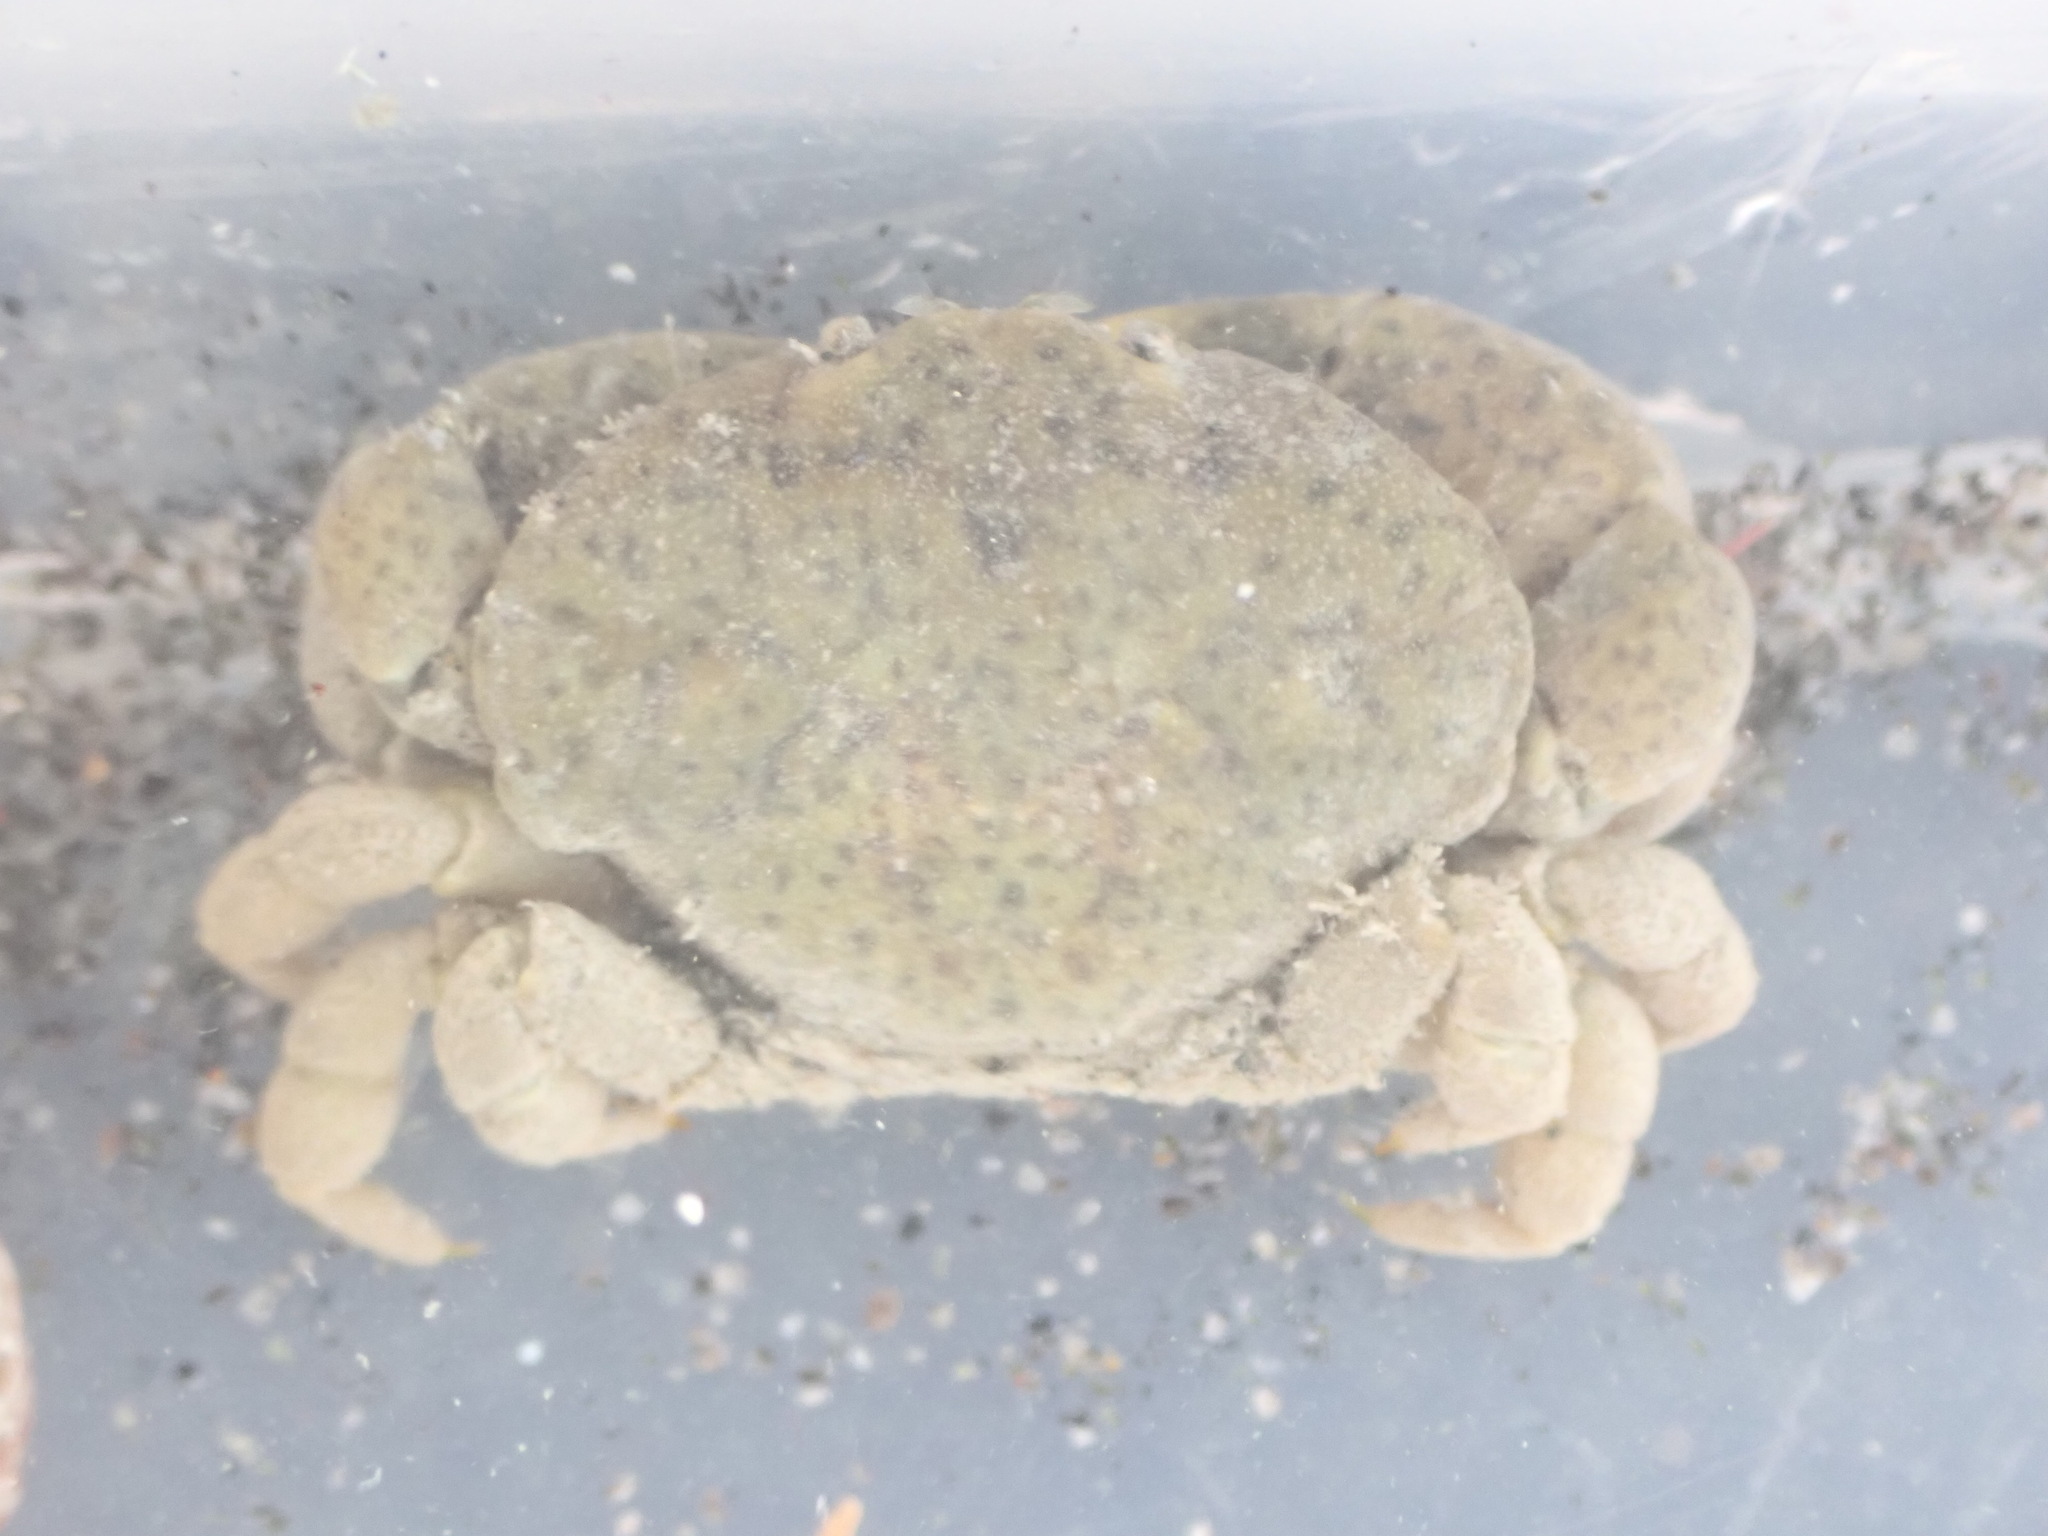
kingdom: Animalia
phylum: Arthropoda
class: Malacostraca
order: Decapoda
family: Heteroziidae
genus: Heterozius
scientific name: Heterozius rotundifrons
